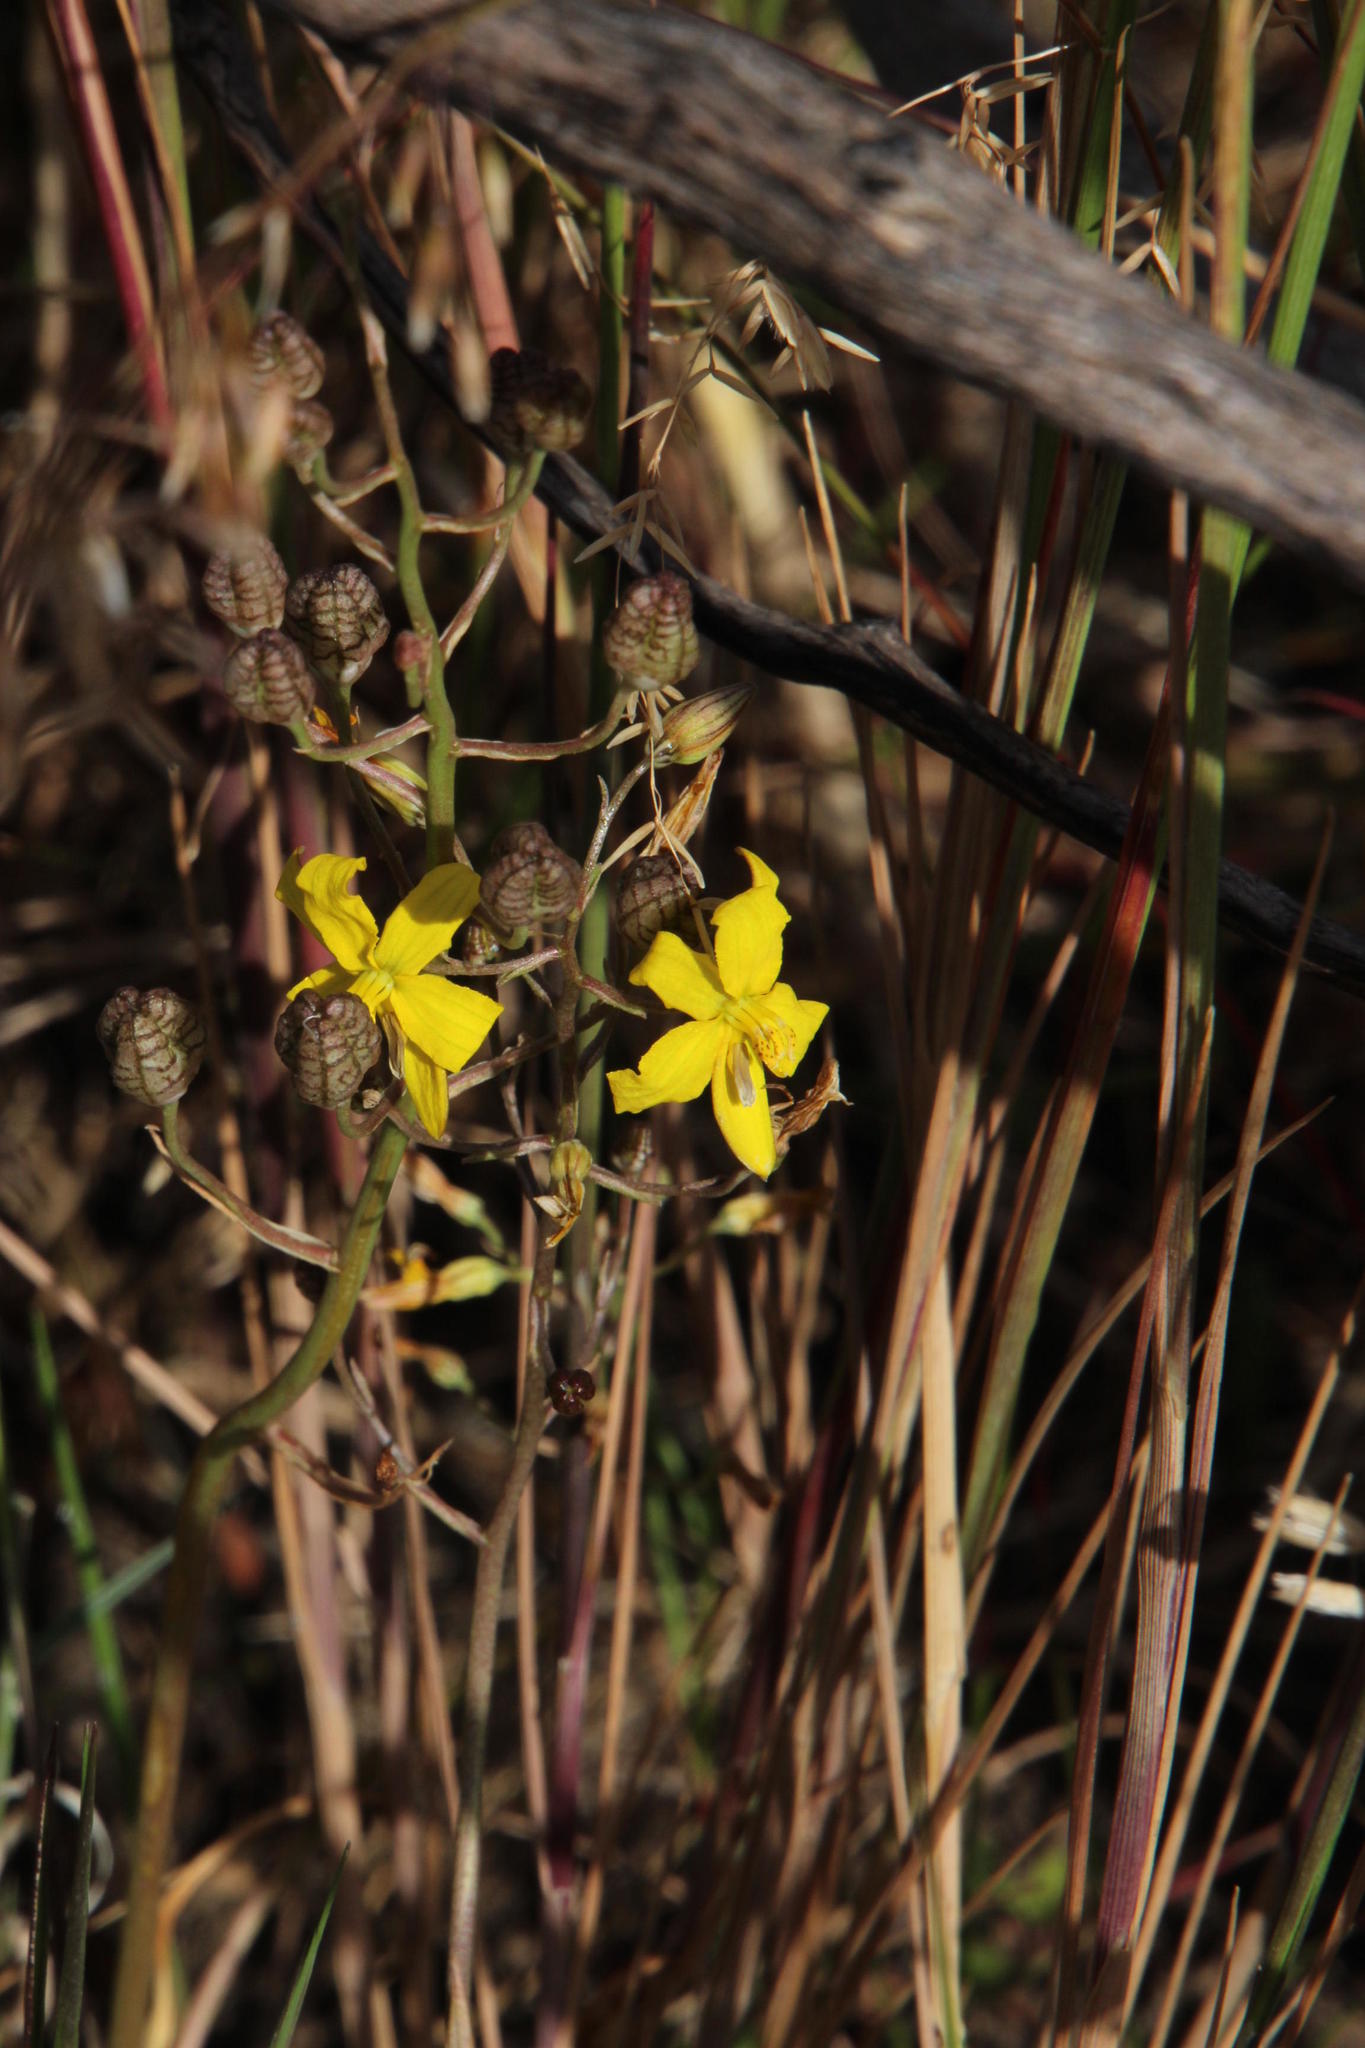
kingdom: Plantae
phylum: Tracheophyta
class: Liliopsida
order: Asparagales
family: Tecophilaeaceae
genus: Cyanella
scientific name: Cyanella lutea
